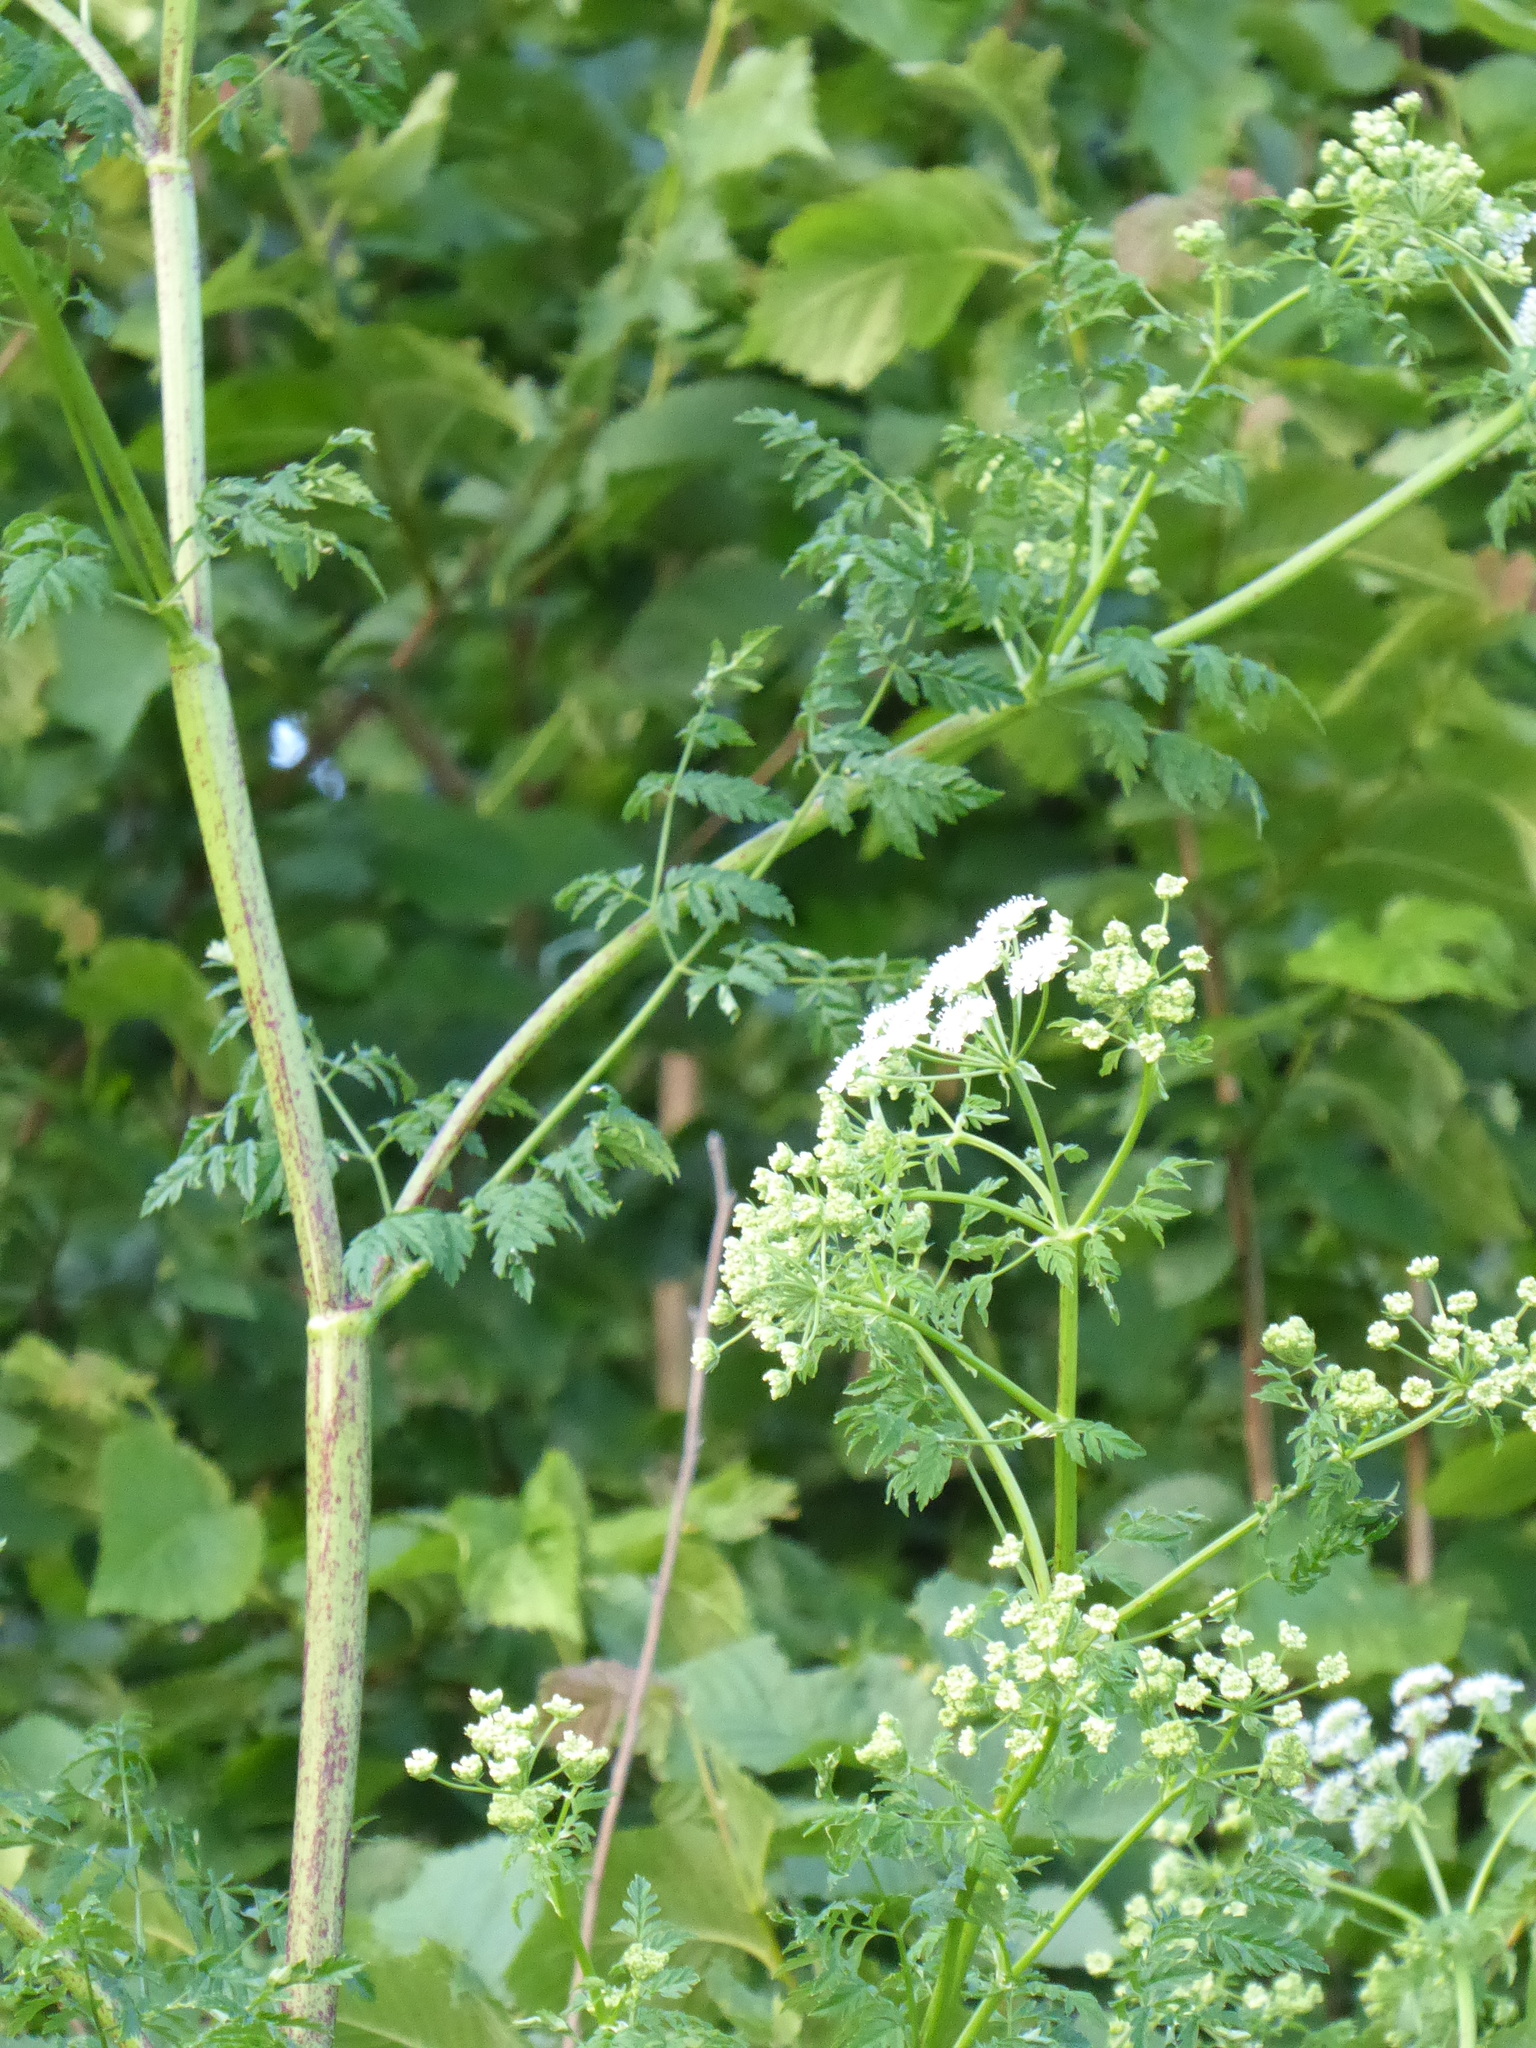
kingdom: Plantae
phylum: Tracheophyta
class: Magnoliopsida
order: Apiales
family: Apiaceae
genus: Conium
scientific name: Conium maculatum
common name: Hemlock
